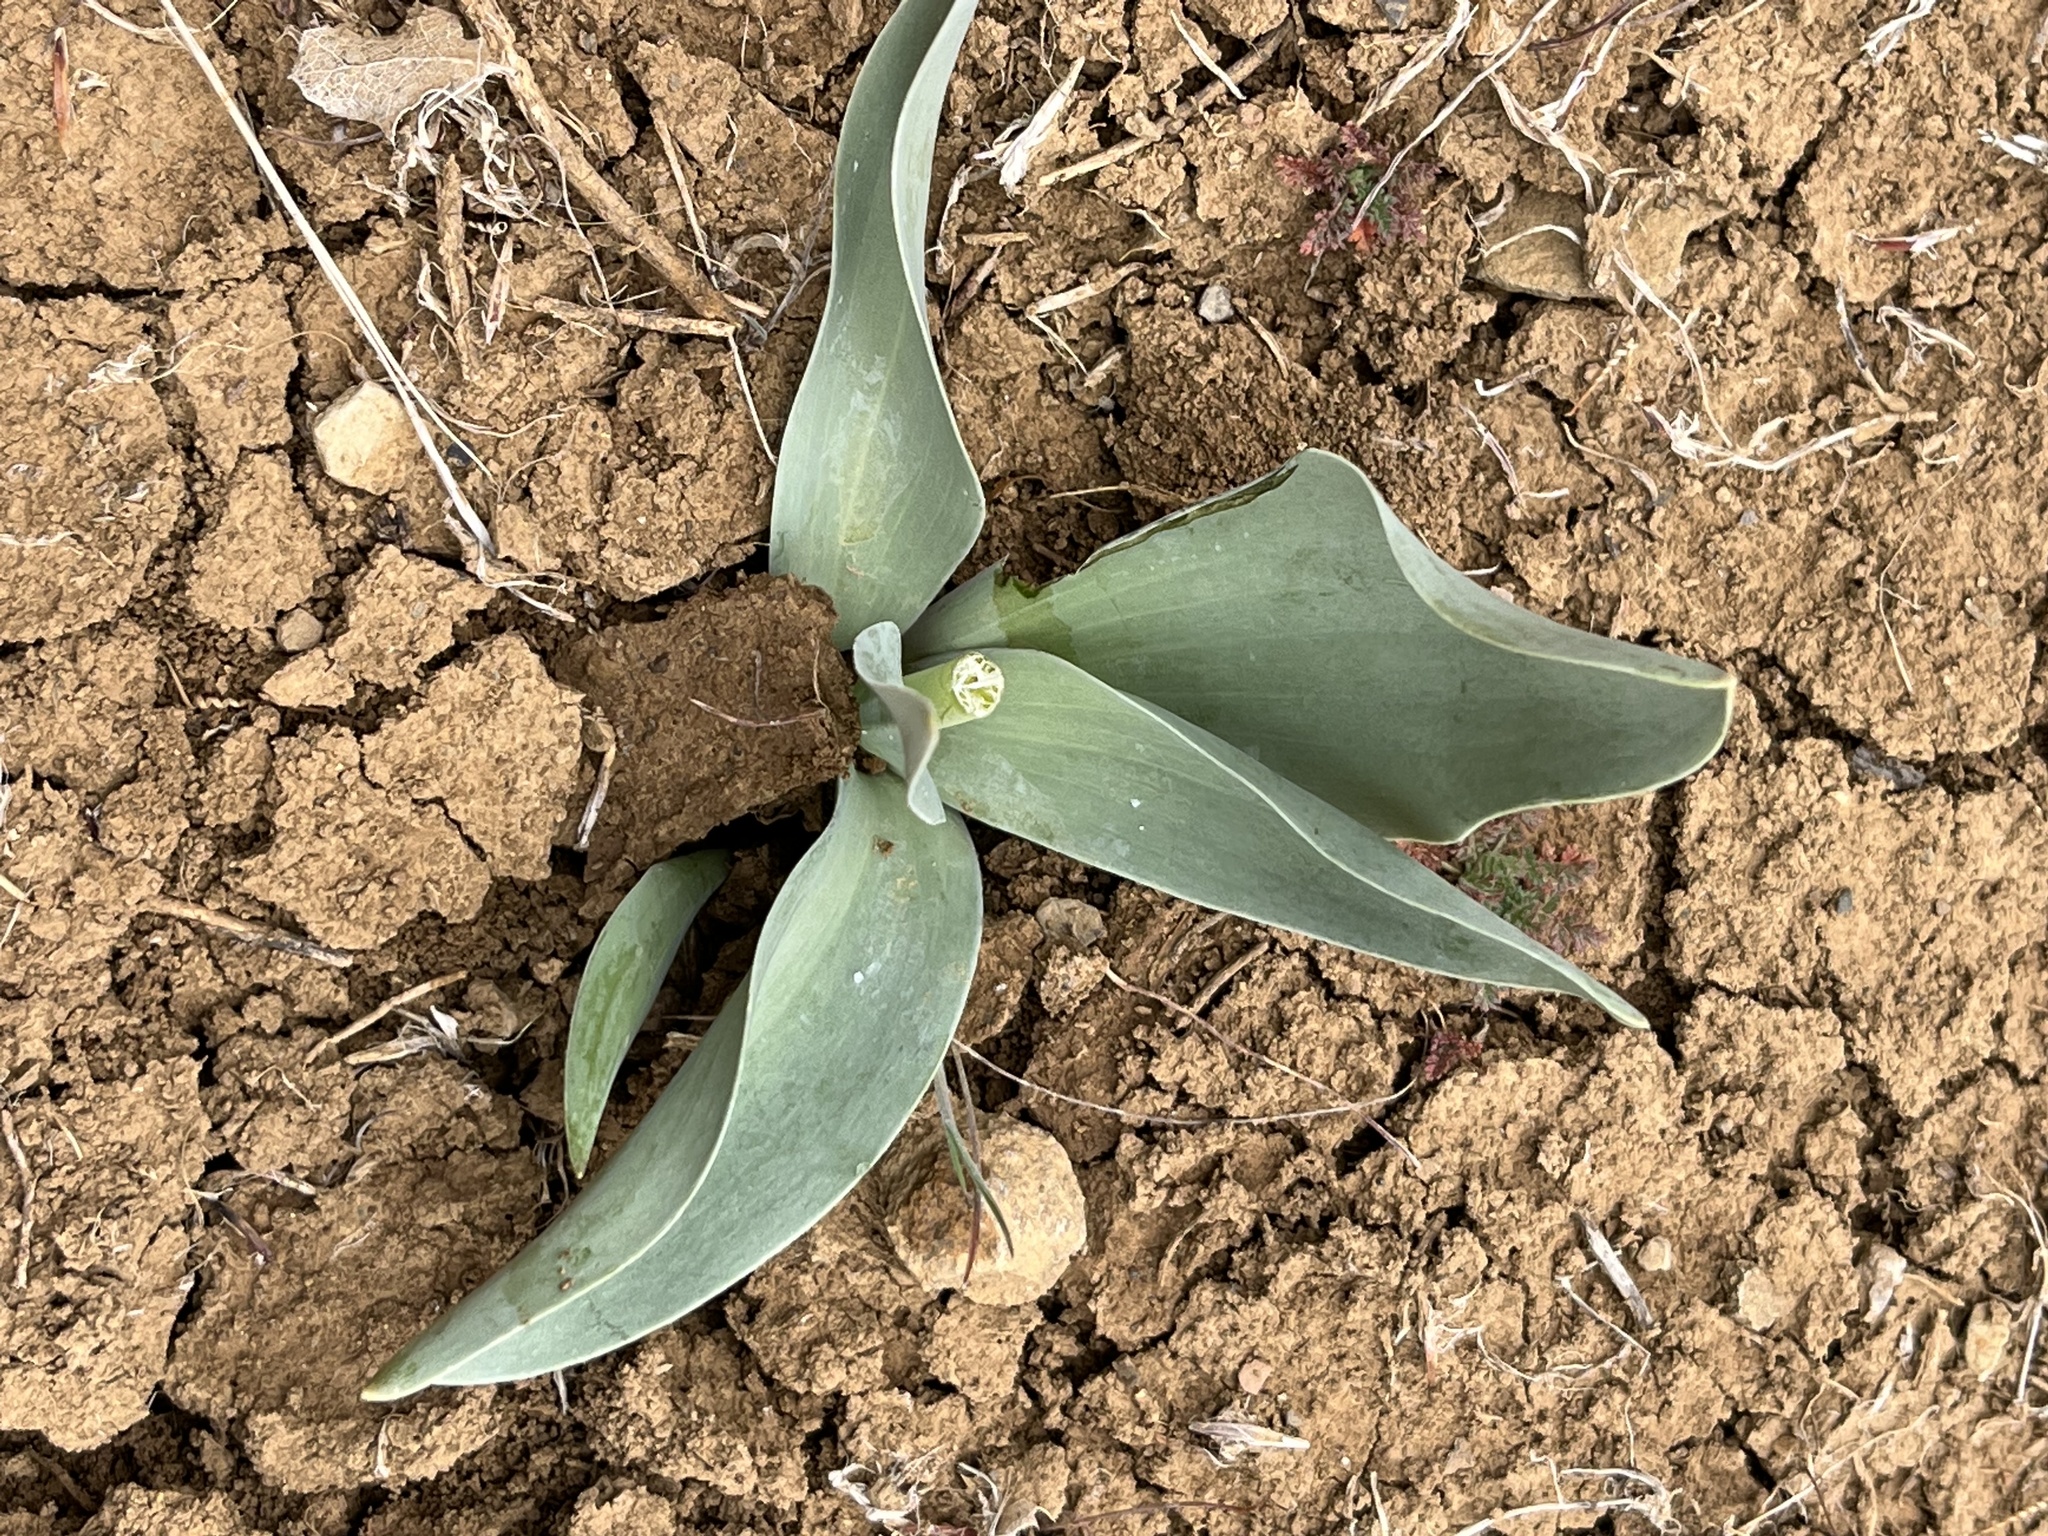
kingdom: Plantae
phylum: Tracheophyta
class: Liliopsida
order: Liliales
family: Liliaceae
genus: Fritillaria
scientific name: Fritillaria agrestis
